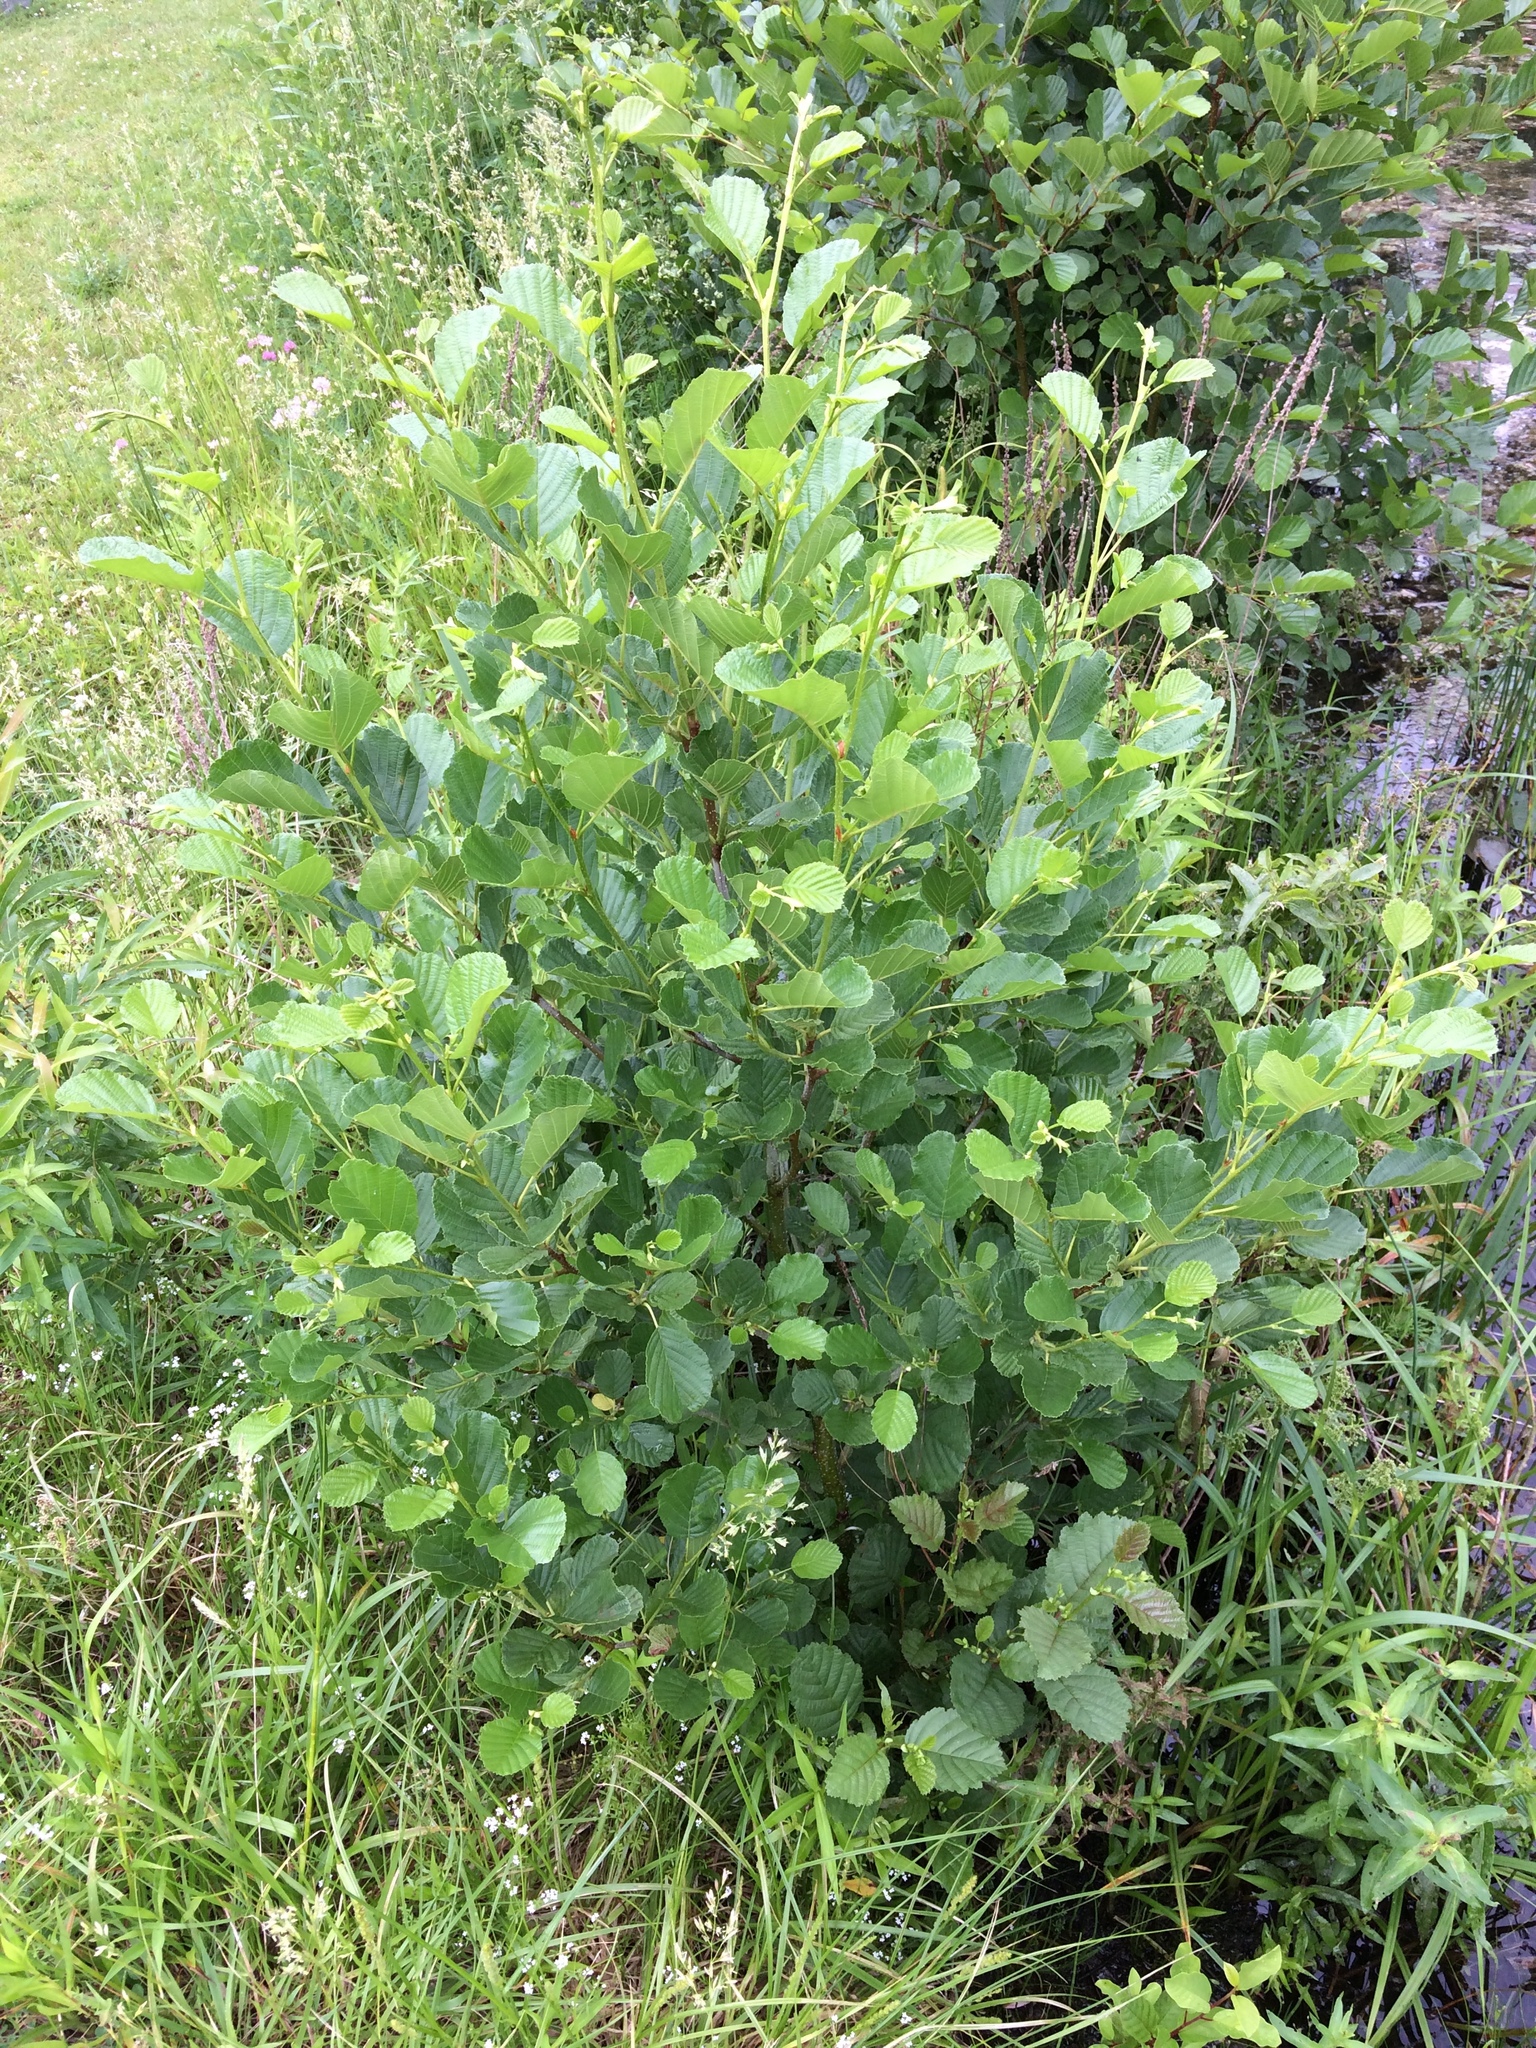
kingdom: Plantae
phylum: Tracheophyta
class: Magnoliopsida
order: Fagales
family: Betulaceae
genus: Alnus
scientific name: Alnus glutinosa
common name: Black alder
